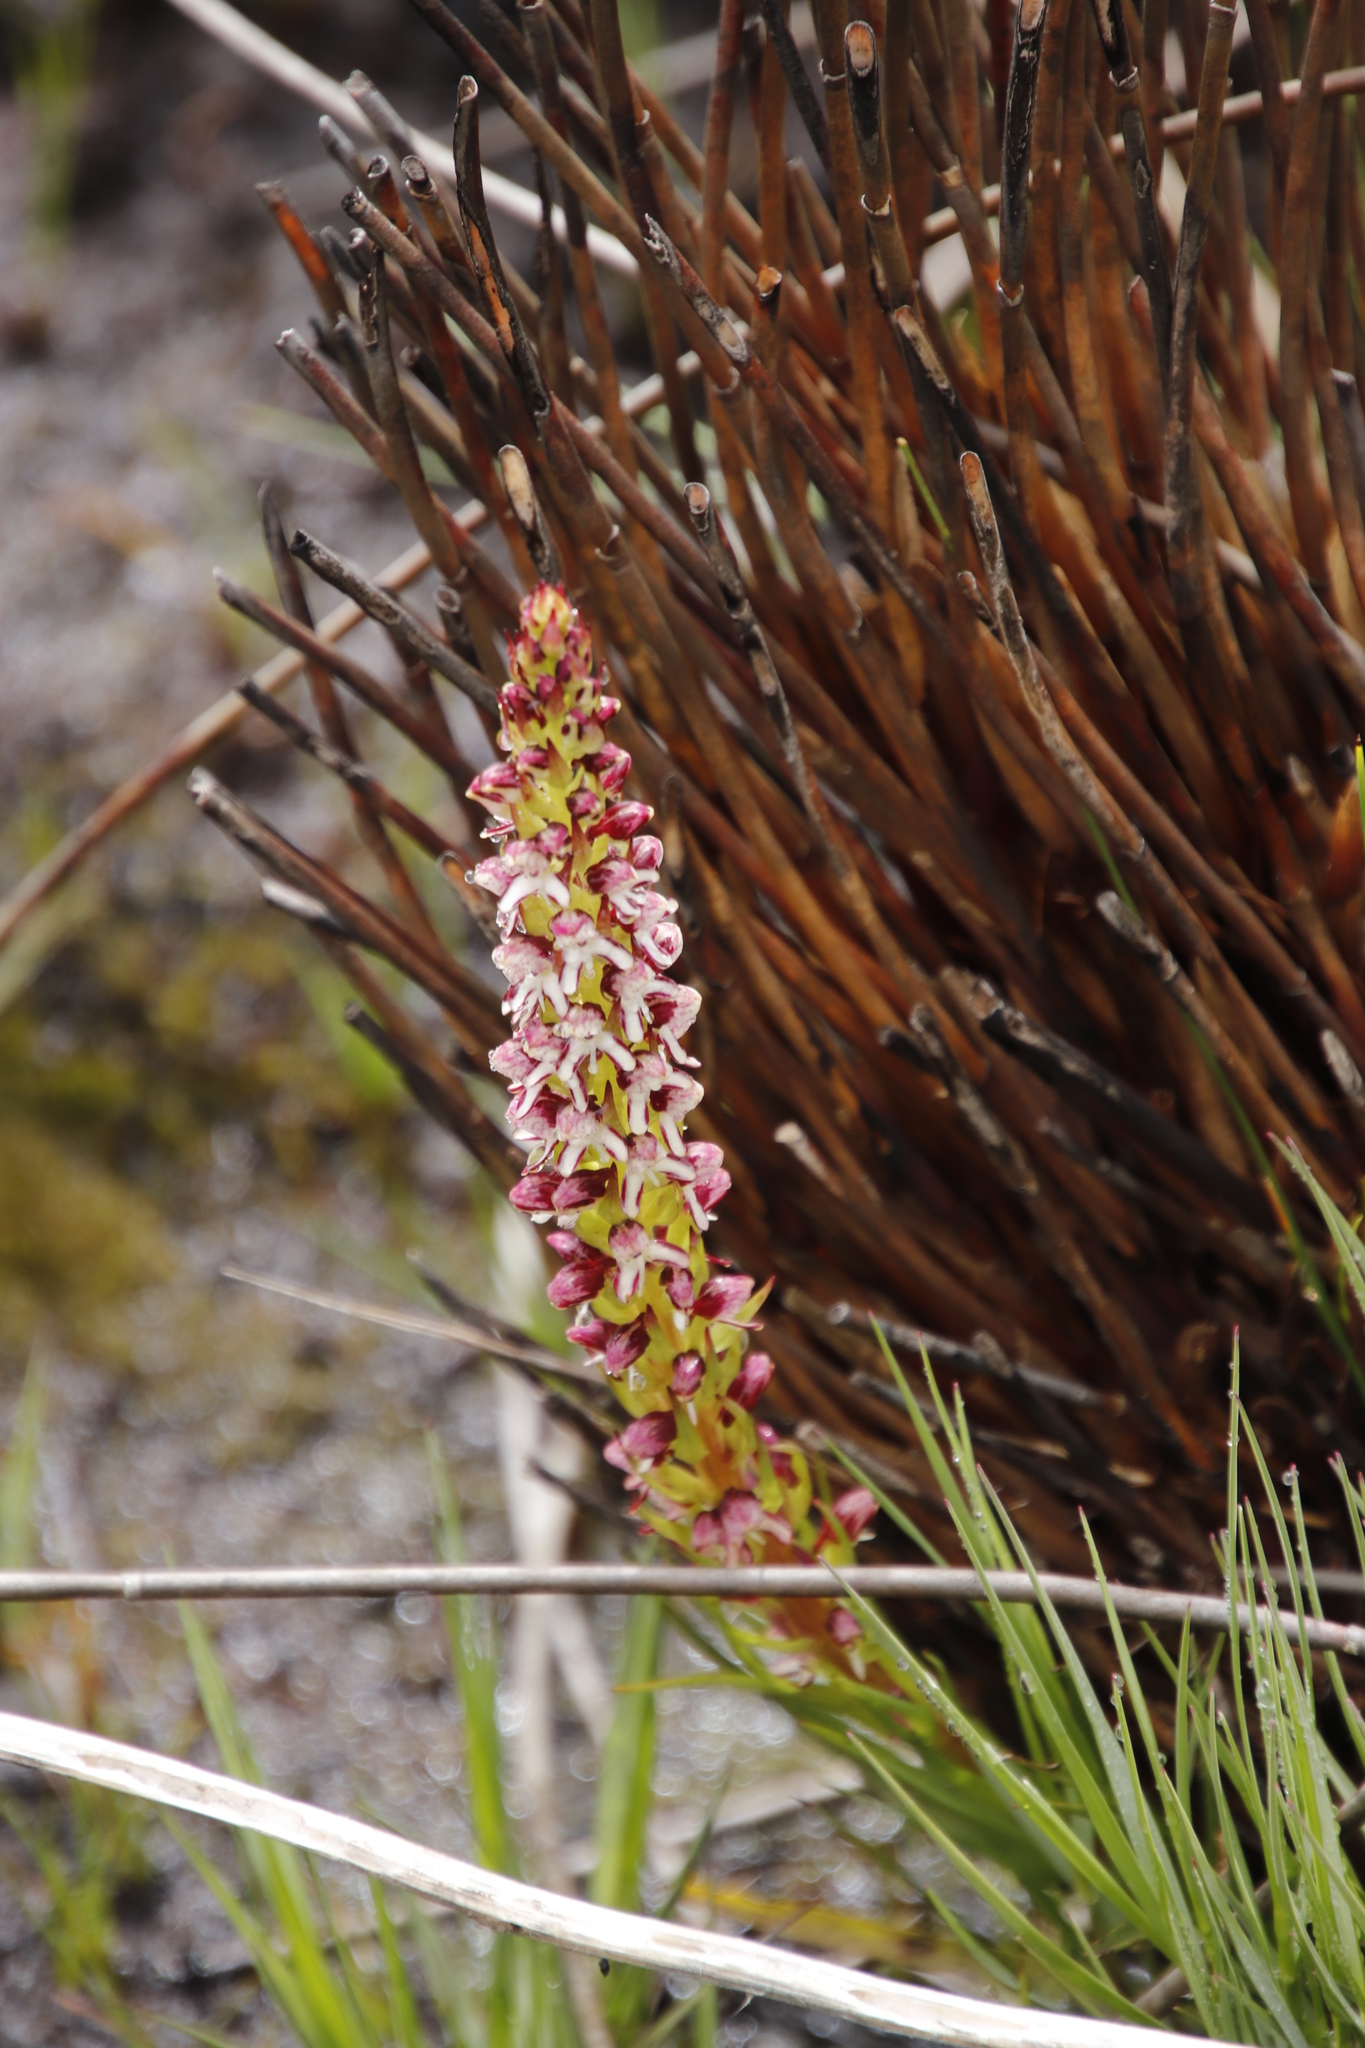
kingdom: Plantae
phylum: Tracheophyta
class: Liliopsida
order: Asparagales
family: Orchidaceae
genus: Disa
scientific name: Disa obtusa
